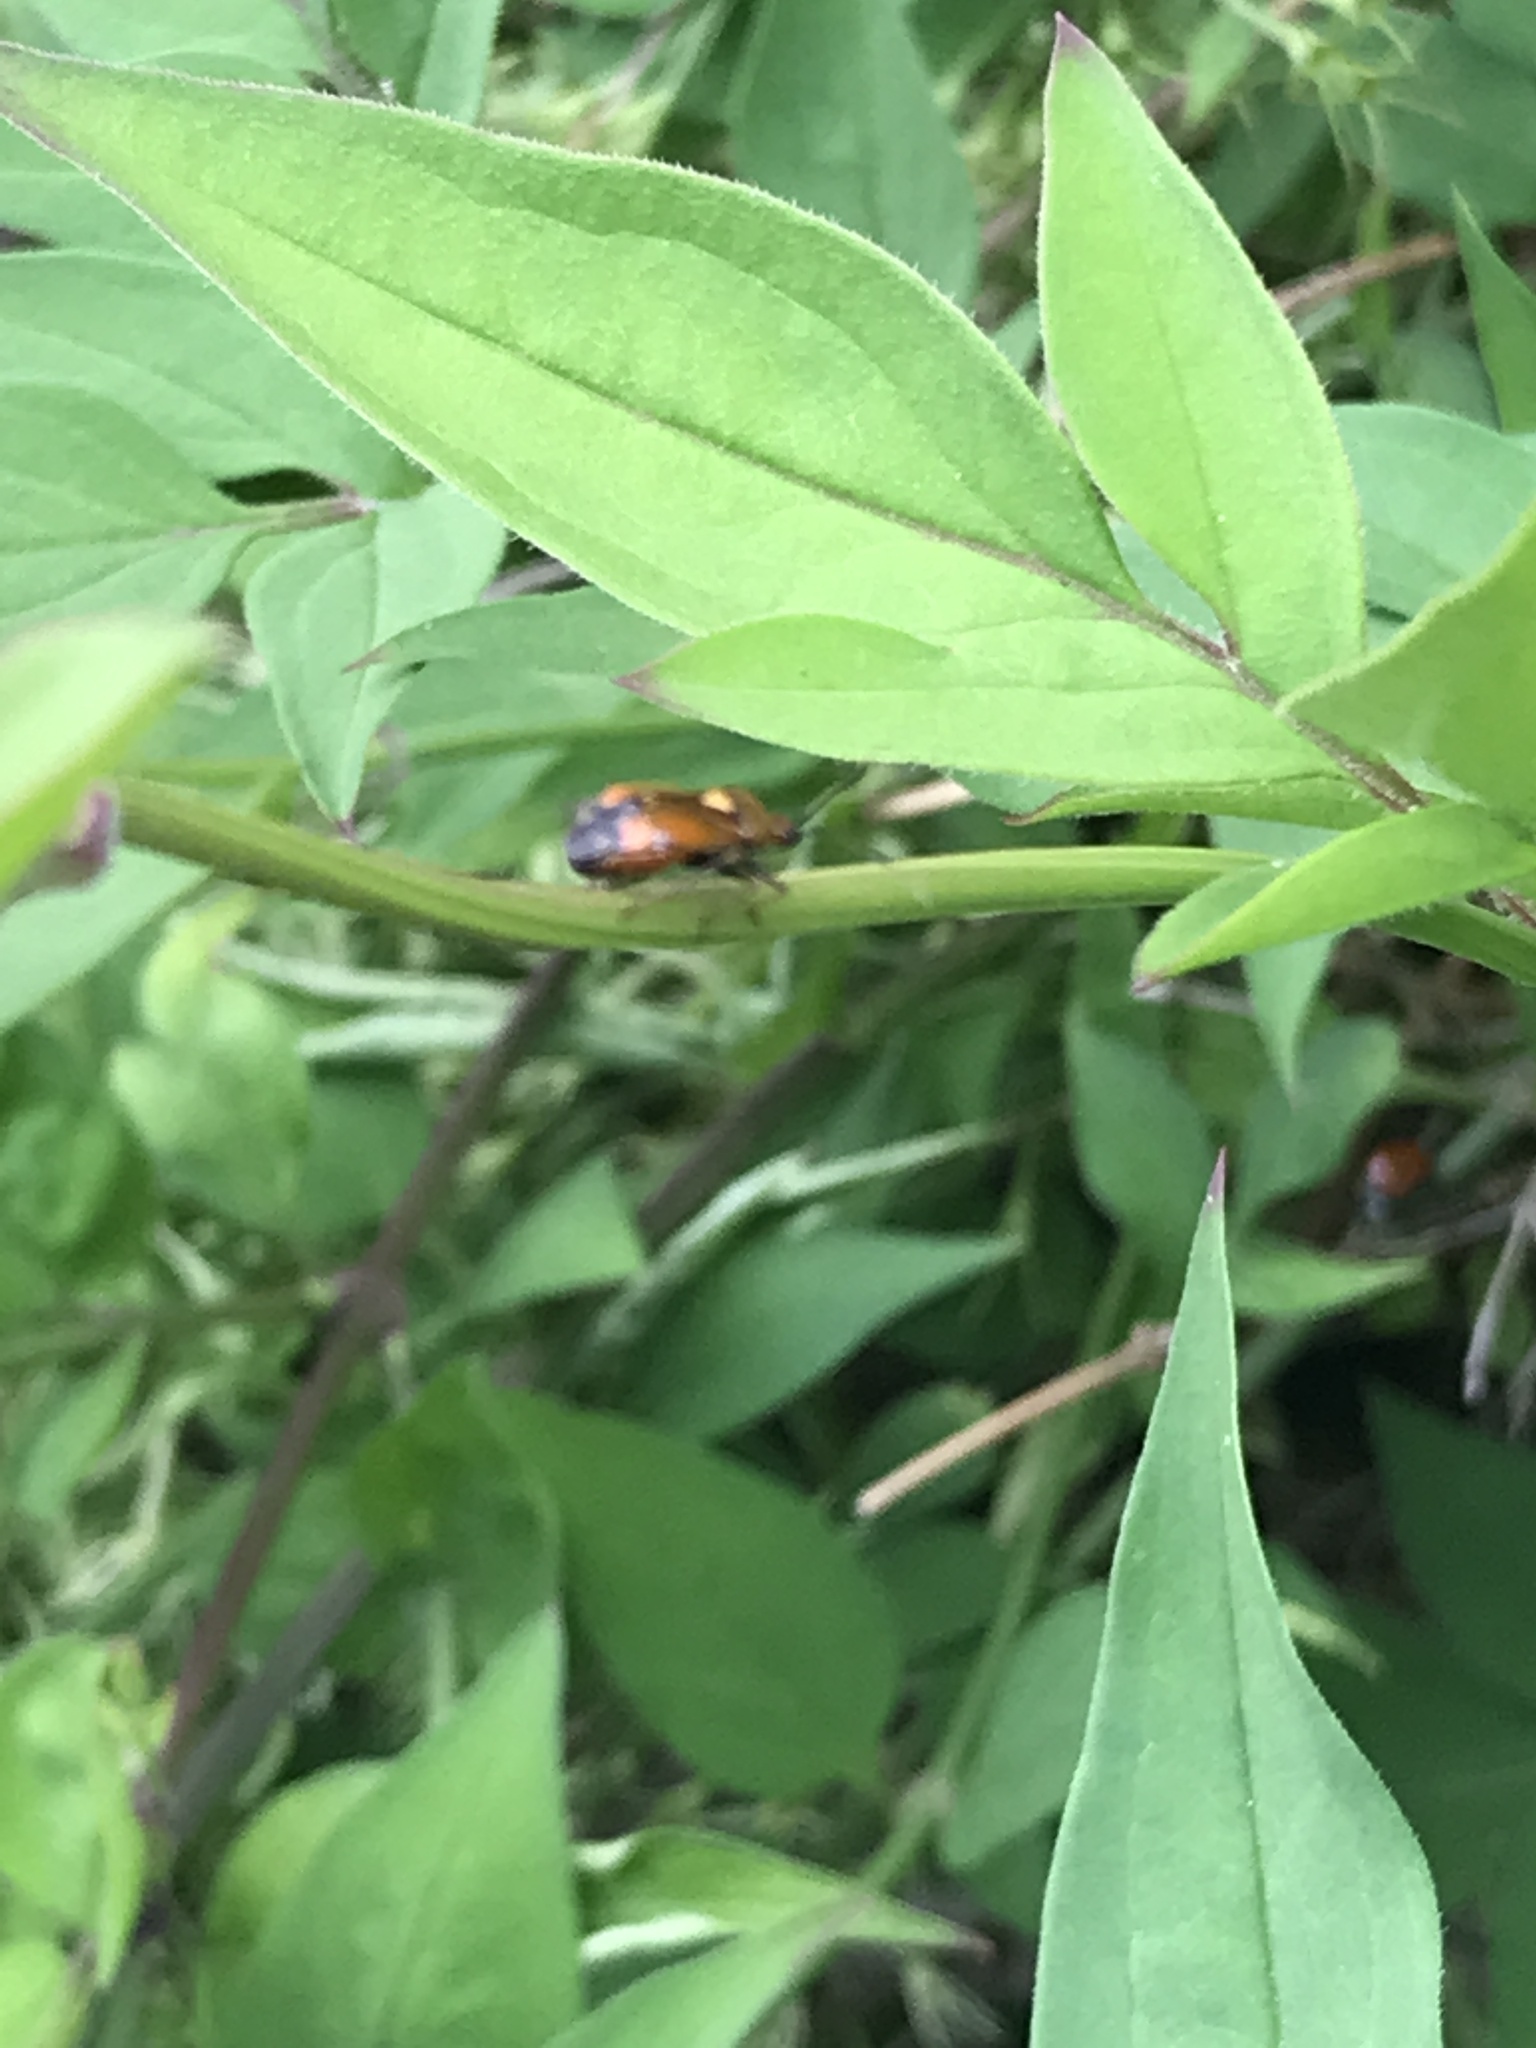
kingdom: Animalia
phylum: Arthropoda
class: Insecta
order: Hemiptera
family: Miridae
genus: Deraeocoris
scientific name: Deraeocoris ruber
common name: Plant bug
